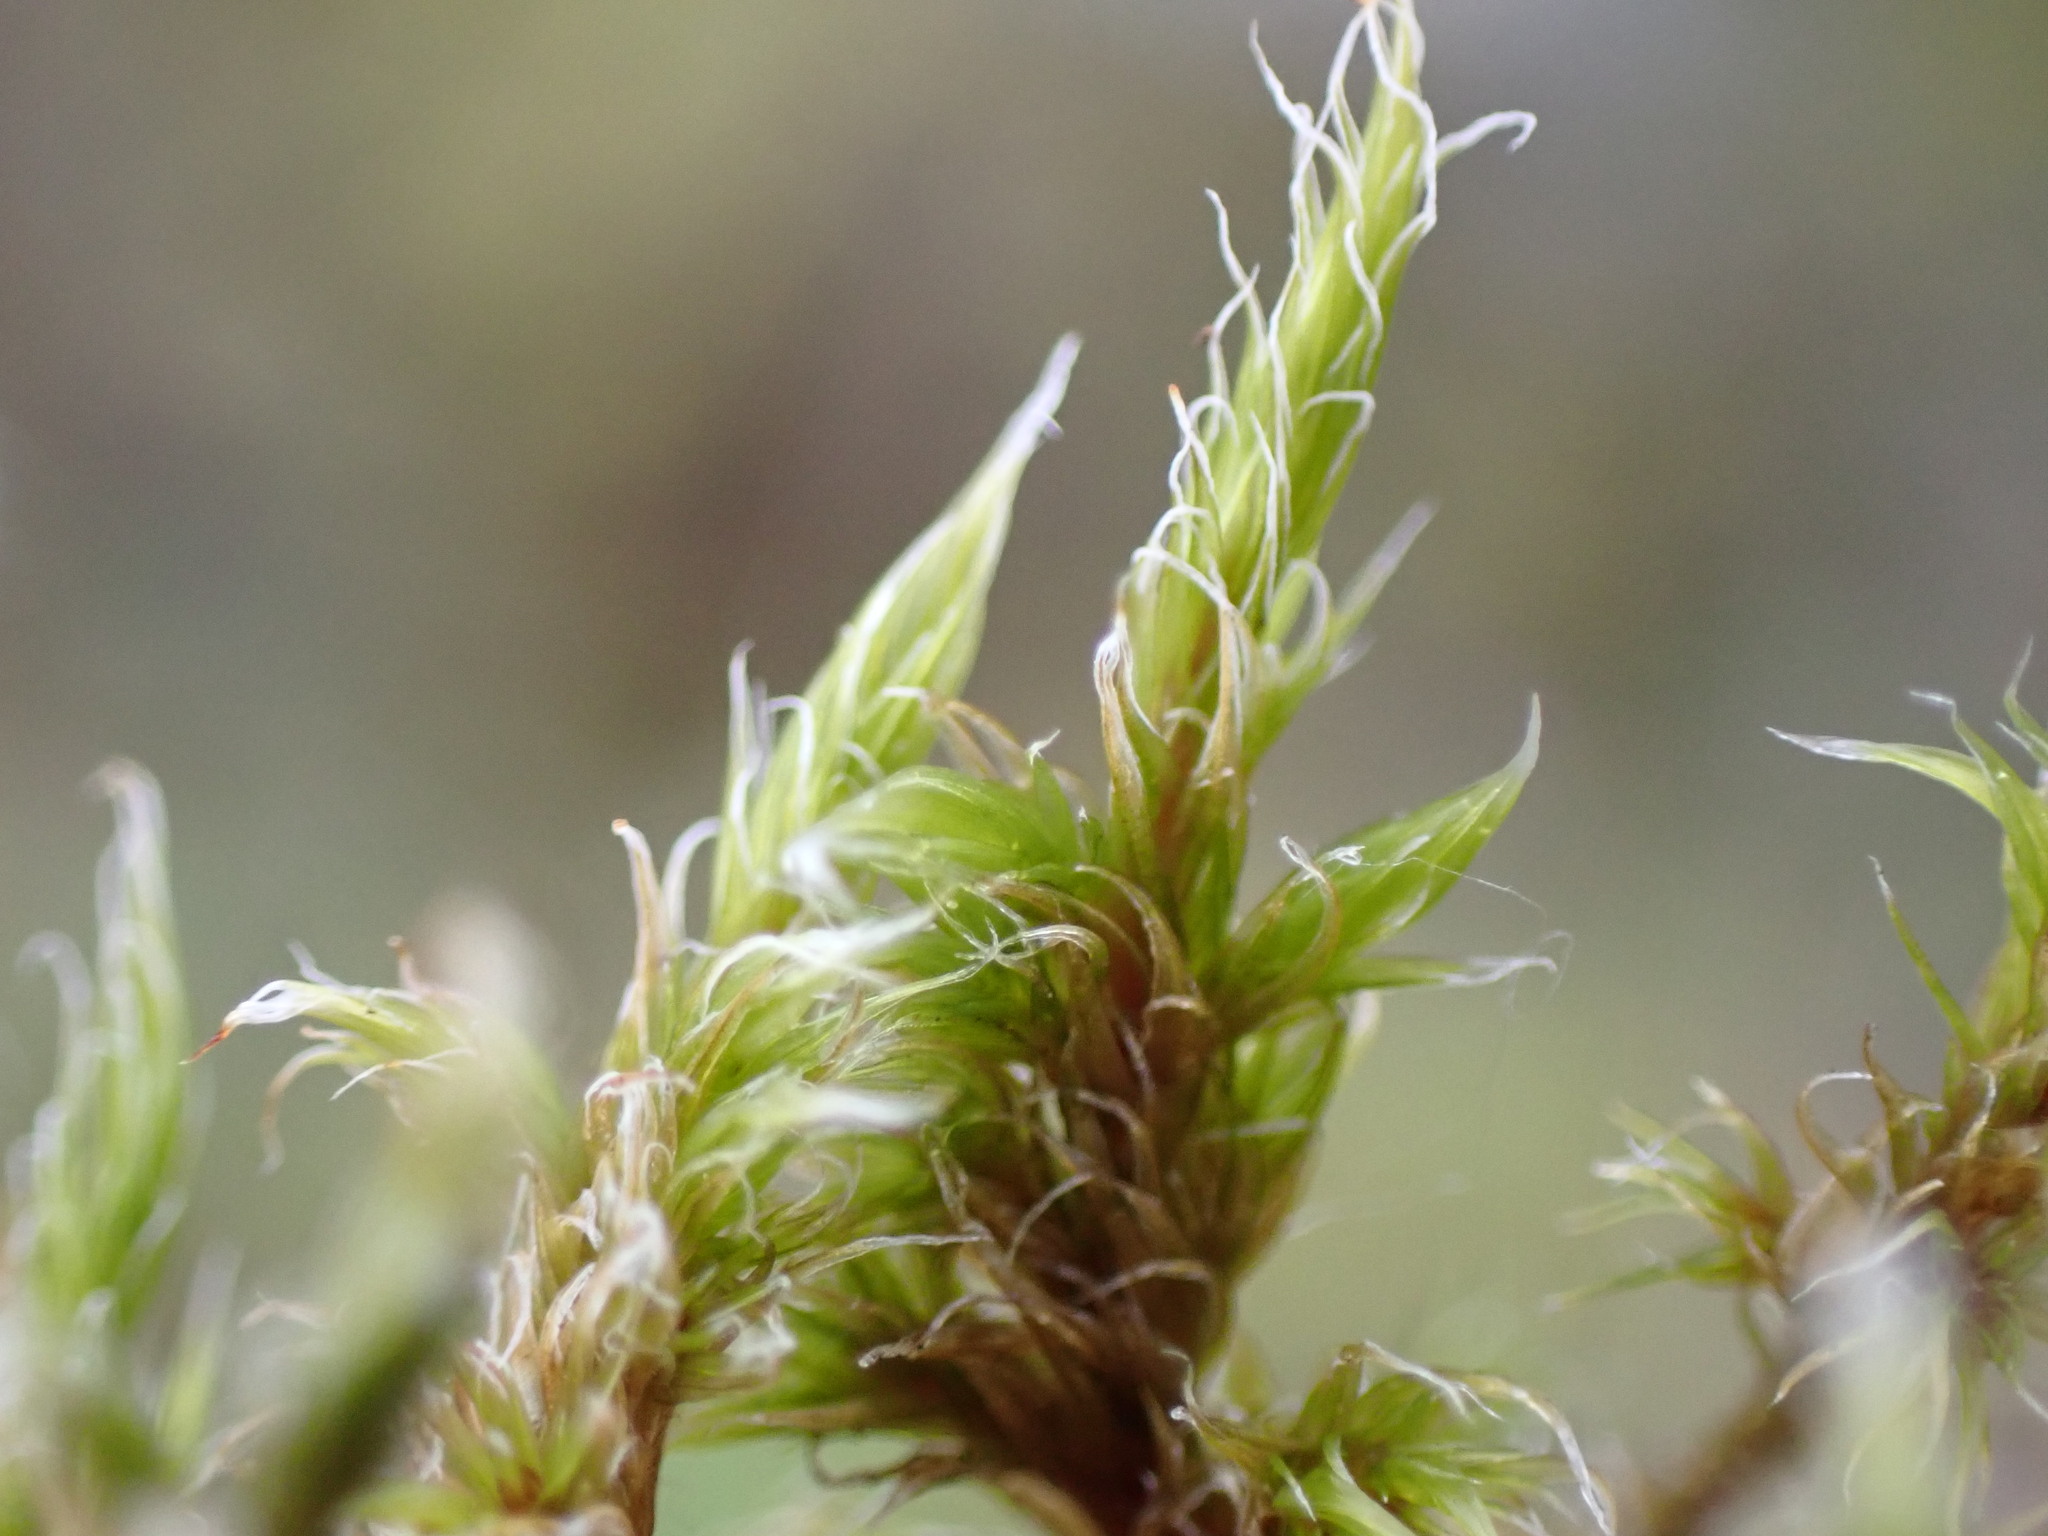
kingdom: Plantae
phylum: Bryophyta
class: Bryopsida
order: Grimmiales
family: Grimmiaceae
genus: Racomitrium
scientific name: Racomitrium lanuginosum
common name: Hoary rock moss
